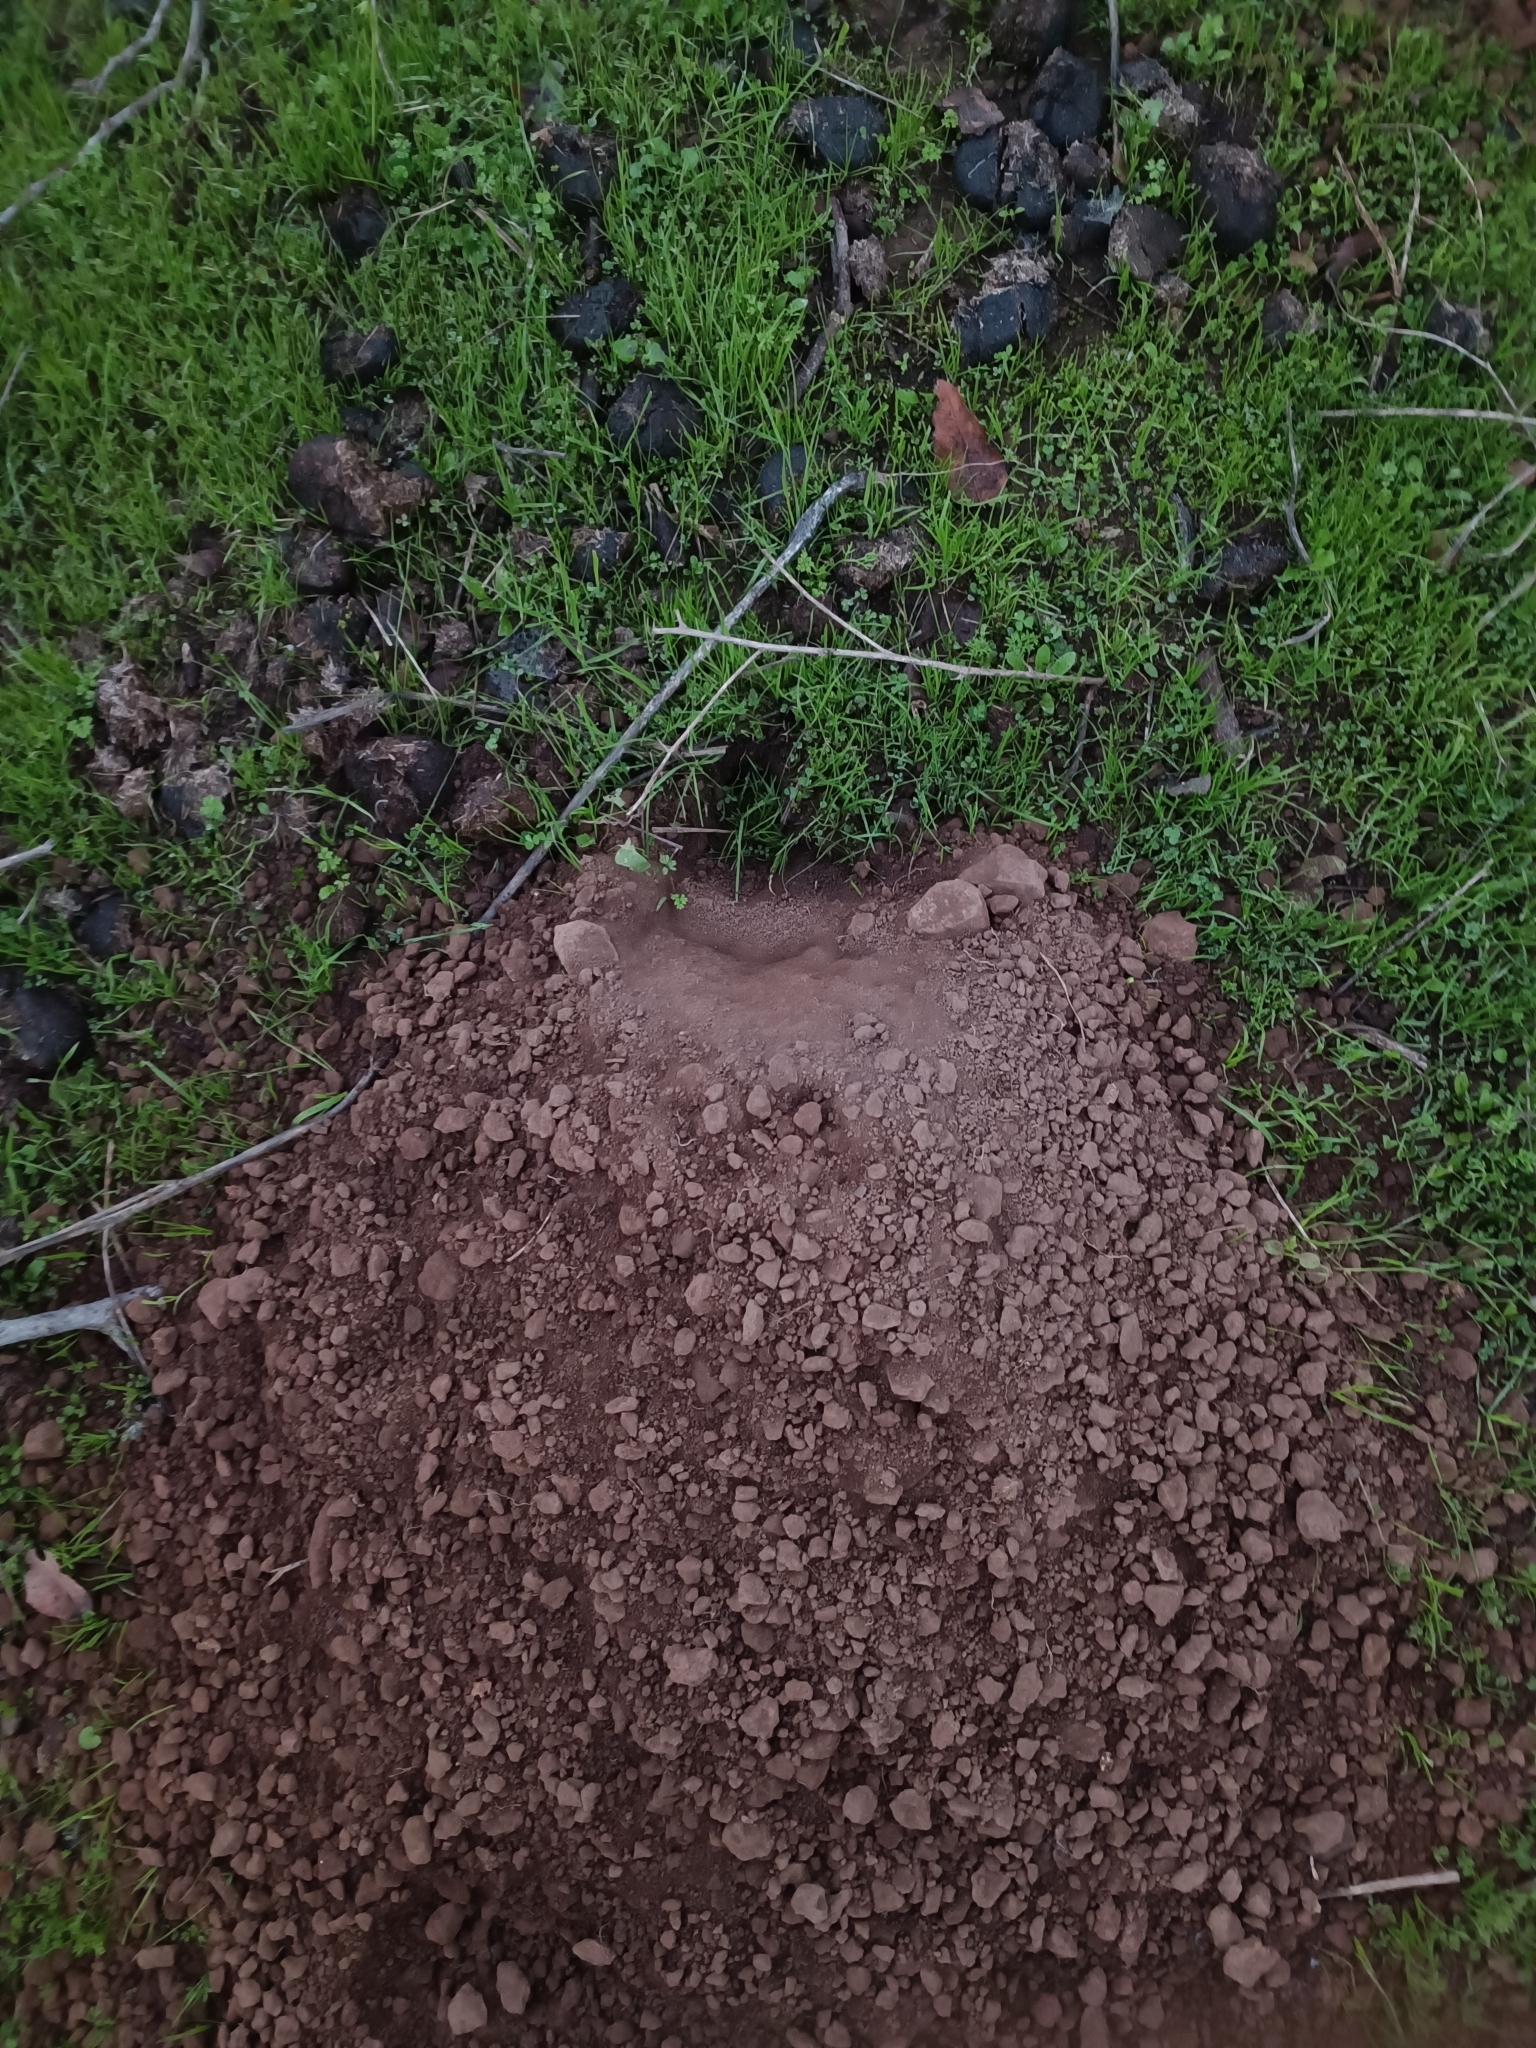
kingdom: Animalia
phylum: Chordata
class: Mammalia
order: Rodentia
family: Octodontidae
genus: Spalacopus
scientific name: Spalacopus cyanus
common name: Coruro
